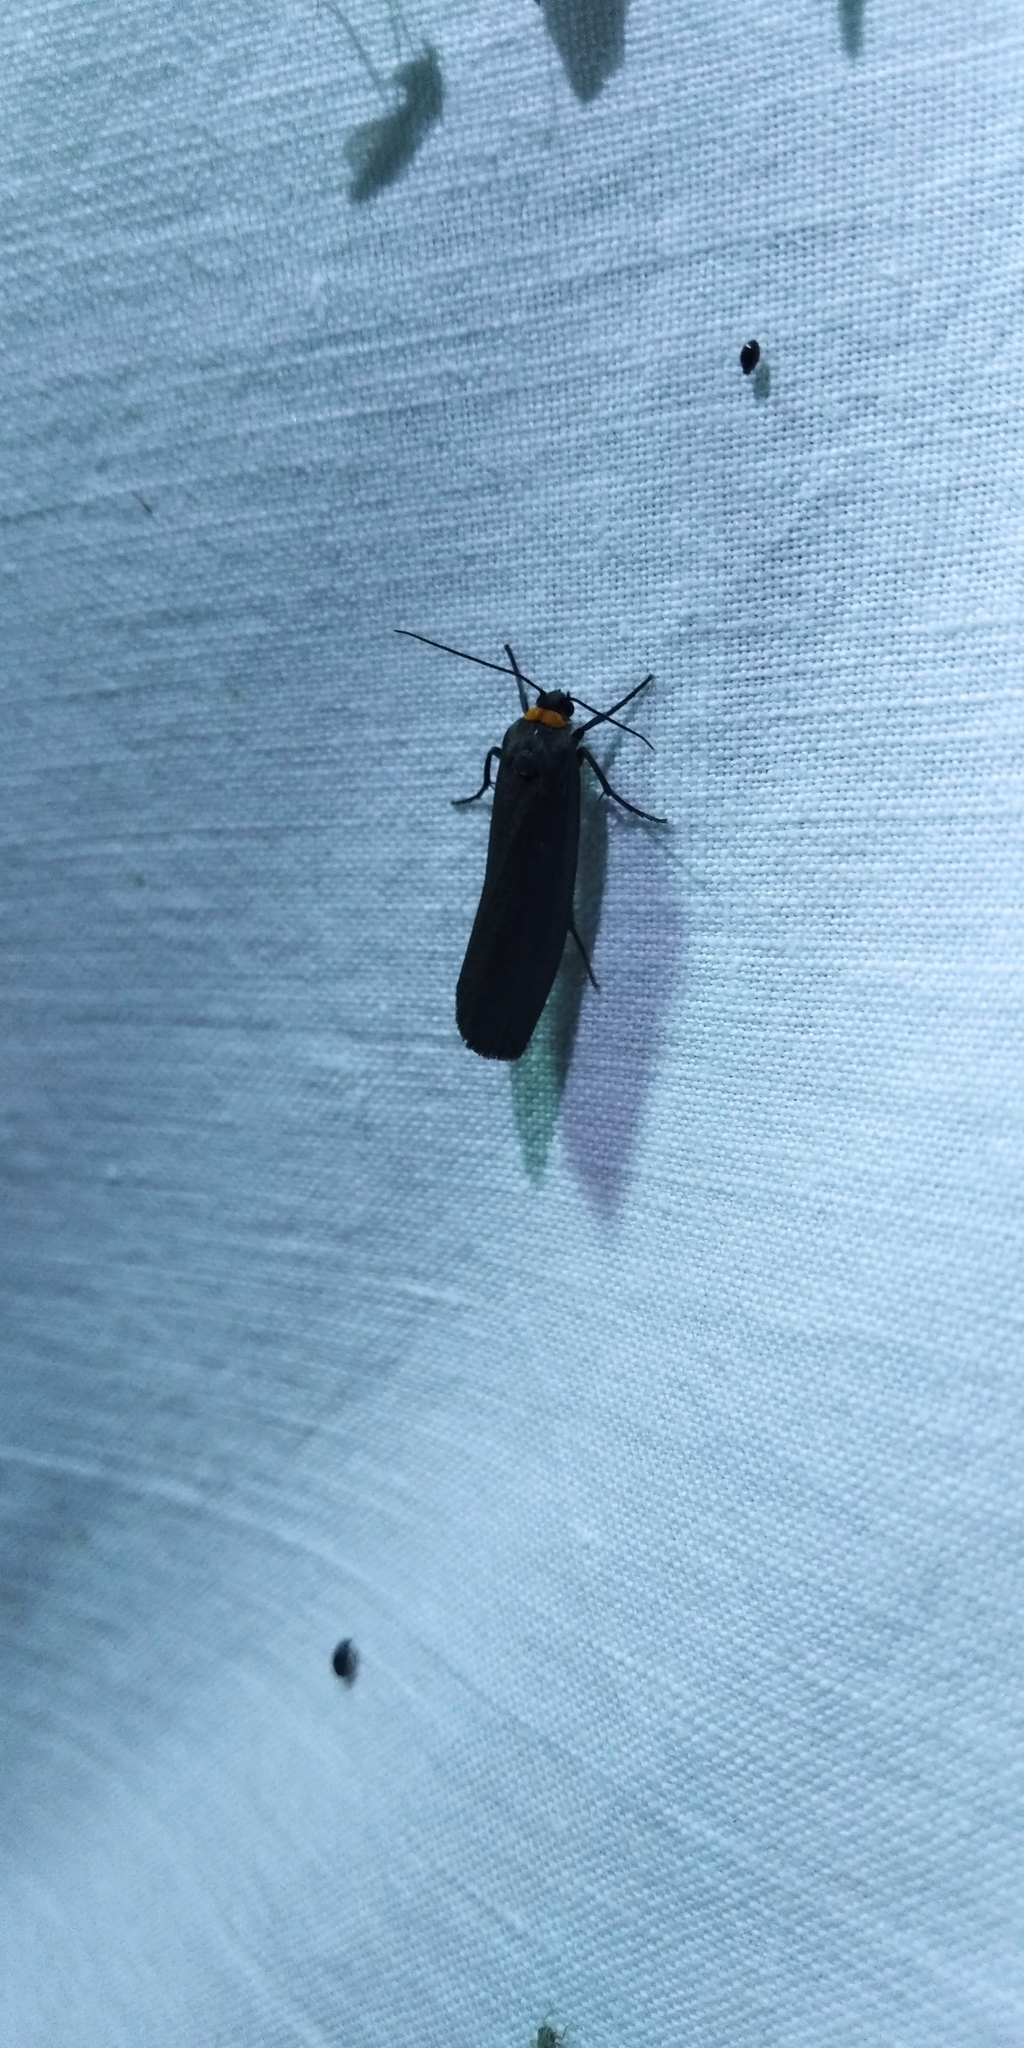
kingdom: Animalia
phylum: Arthropoda
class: Insecta
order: Lepidoptera
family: Erebidae
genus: Atolmis
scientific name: Atolmis rubricollis
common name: Red-necked footman
